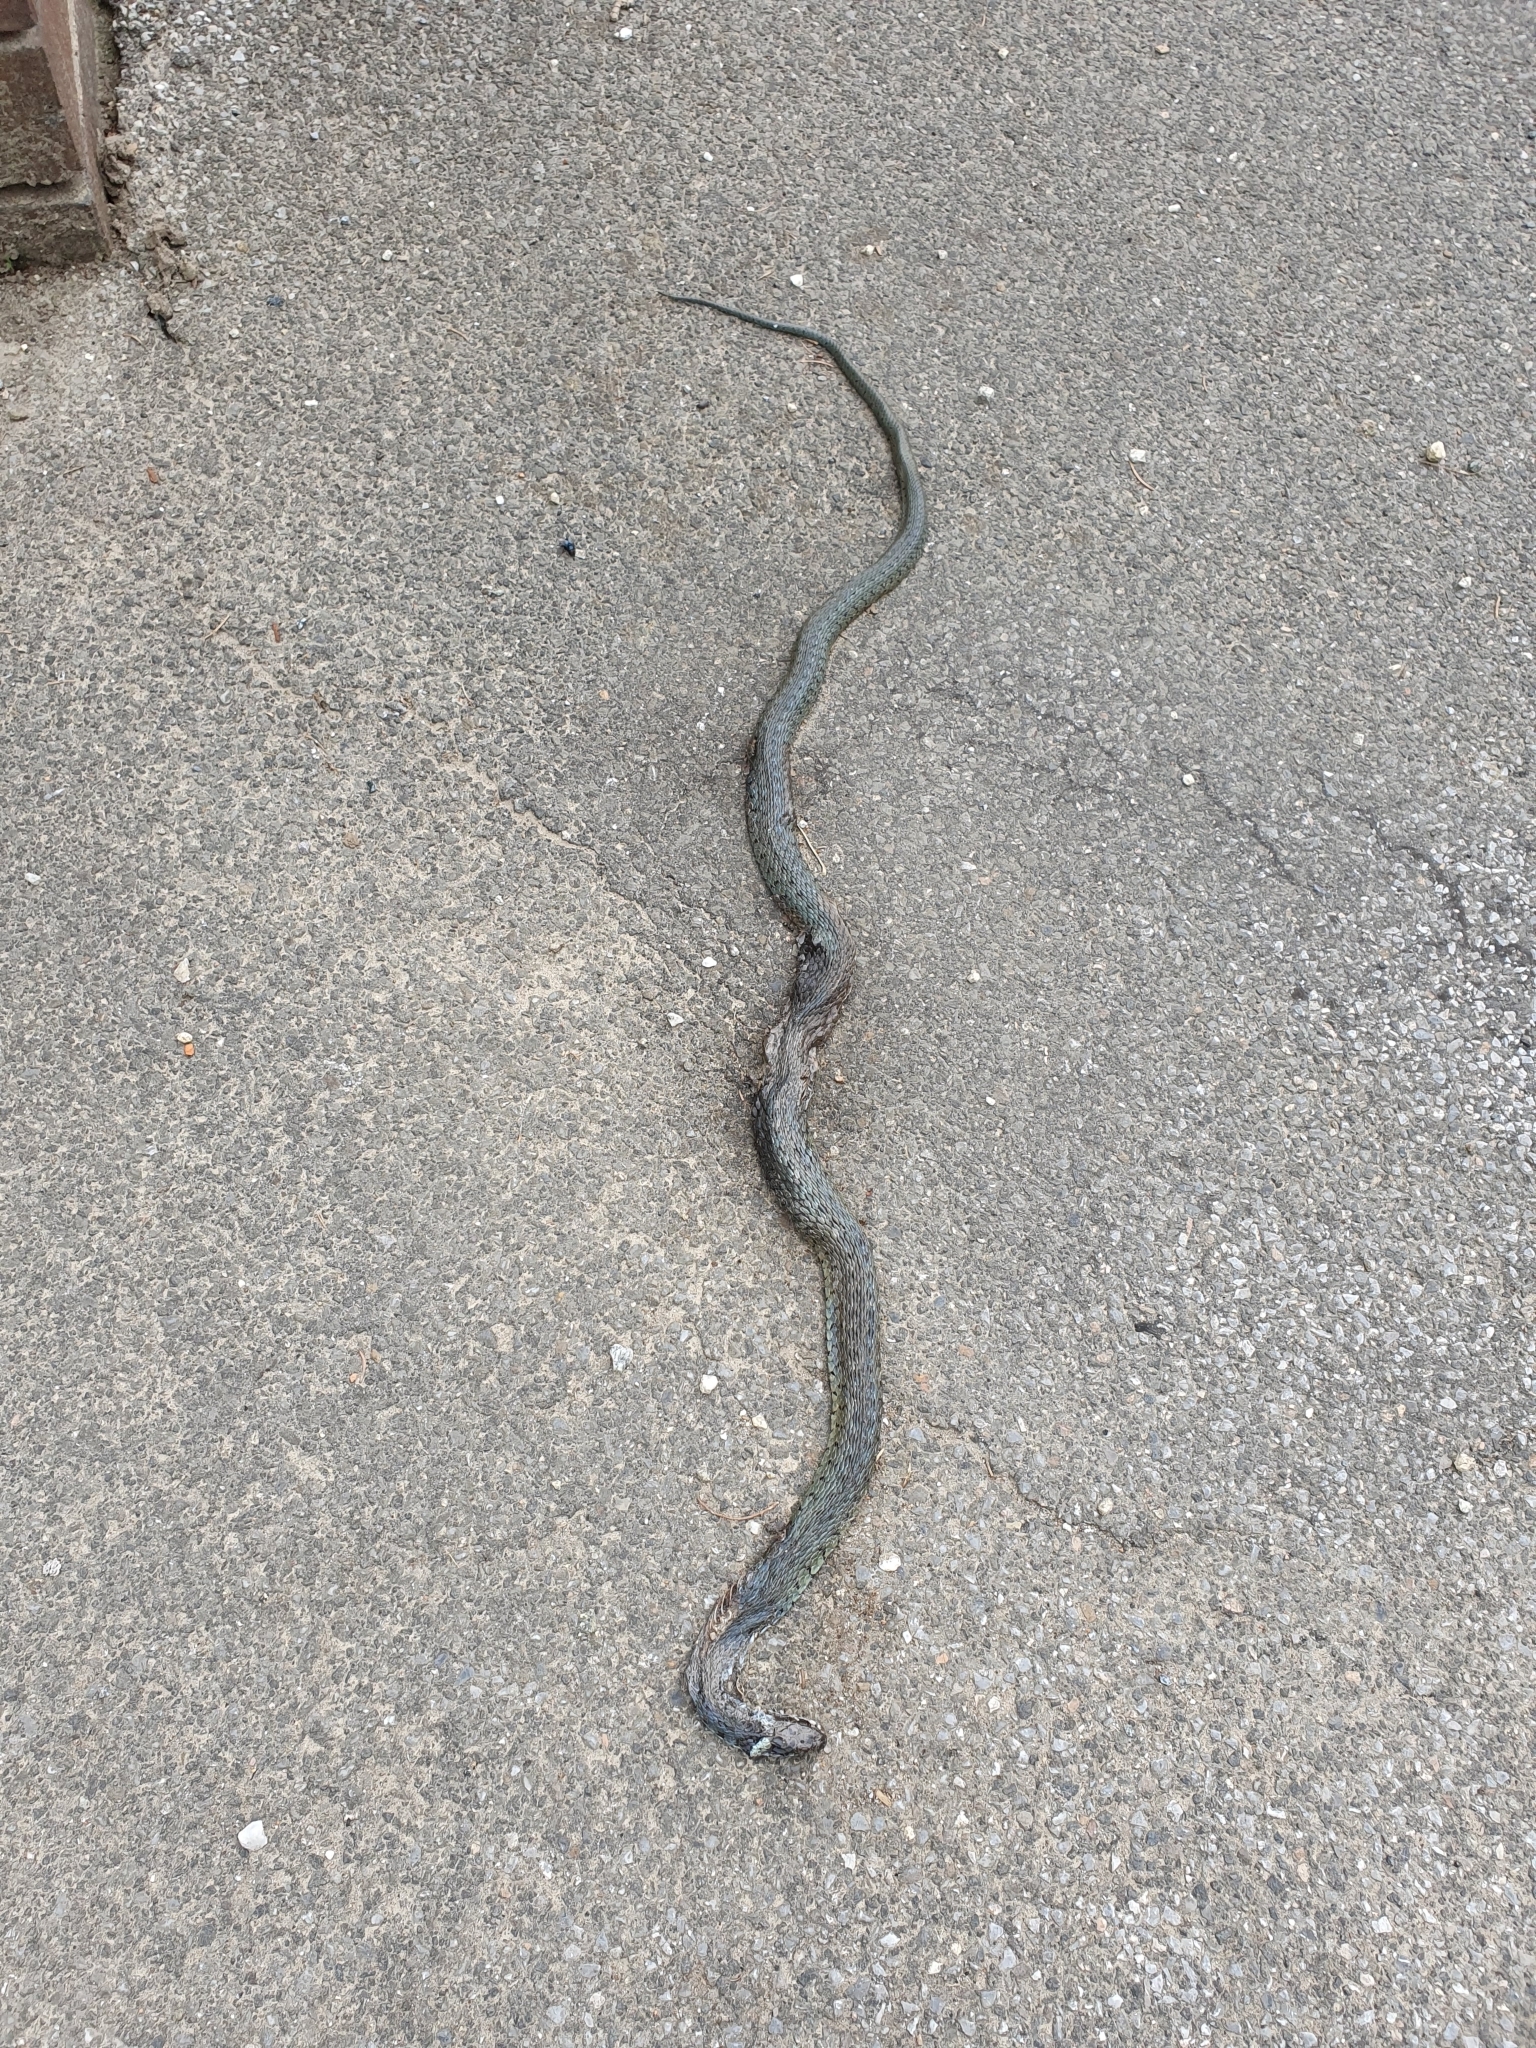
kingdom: Animalia
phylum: Chordata
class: Squamata
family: Colubridae
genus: Natrix
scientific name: Natrix natrix
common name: Grass snake
